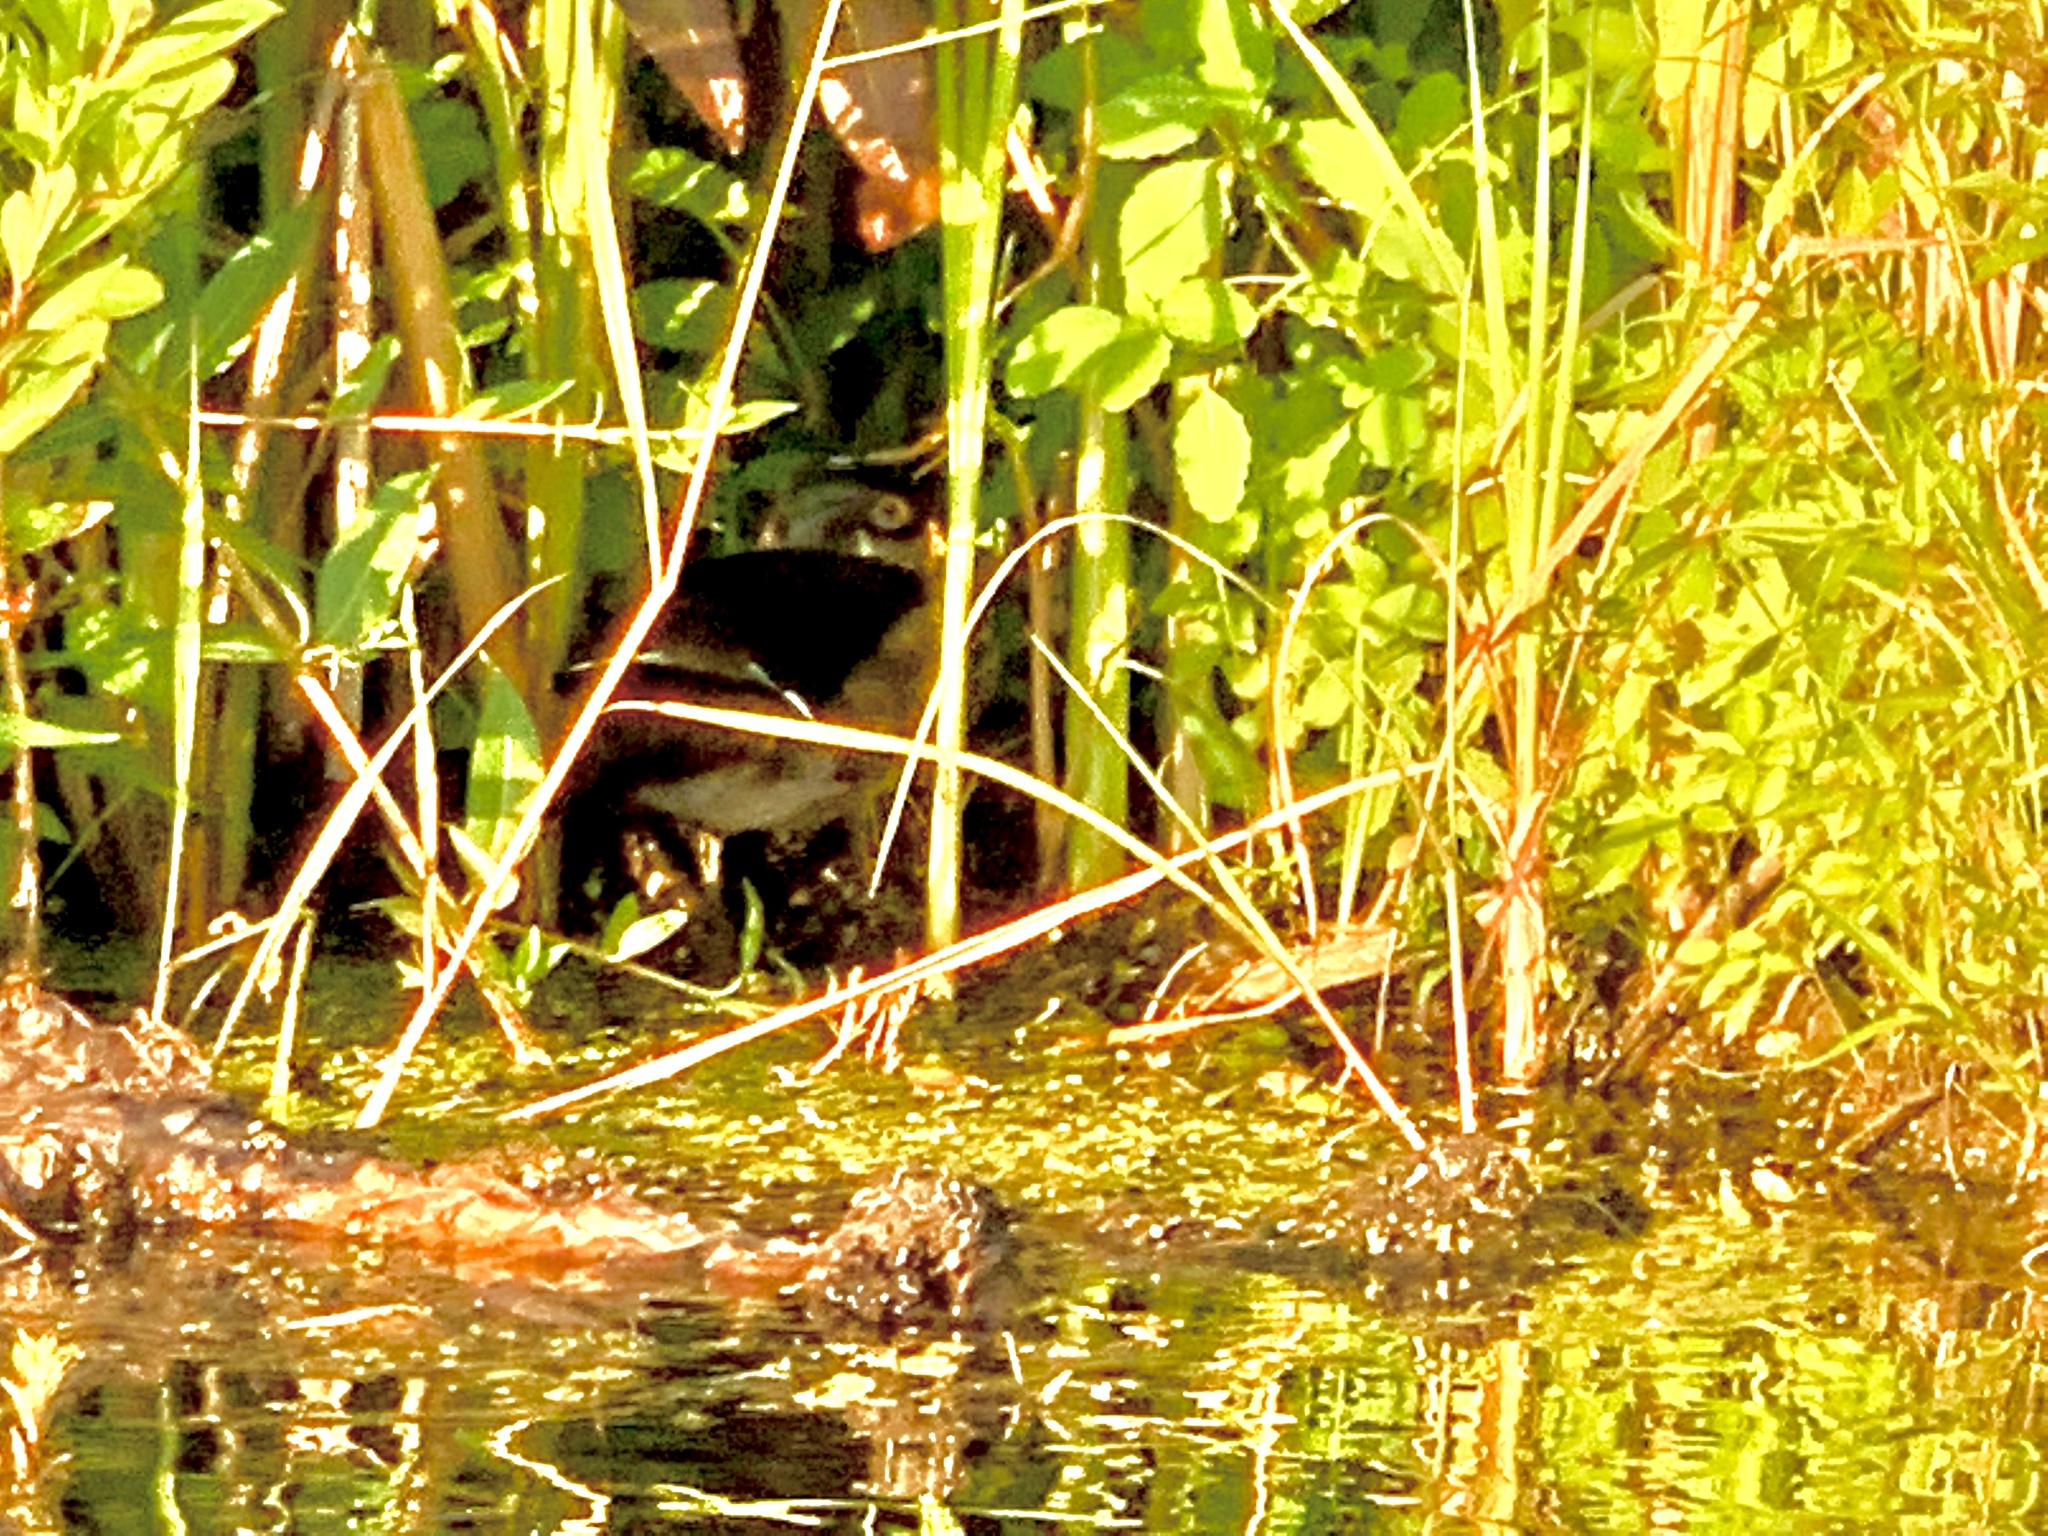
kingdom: Animalia
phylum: Chordata
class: Aves
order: Anseriformes
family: Anatidae
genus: Aix
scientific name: Aix sponsa
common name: Wood duck
